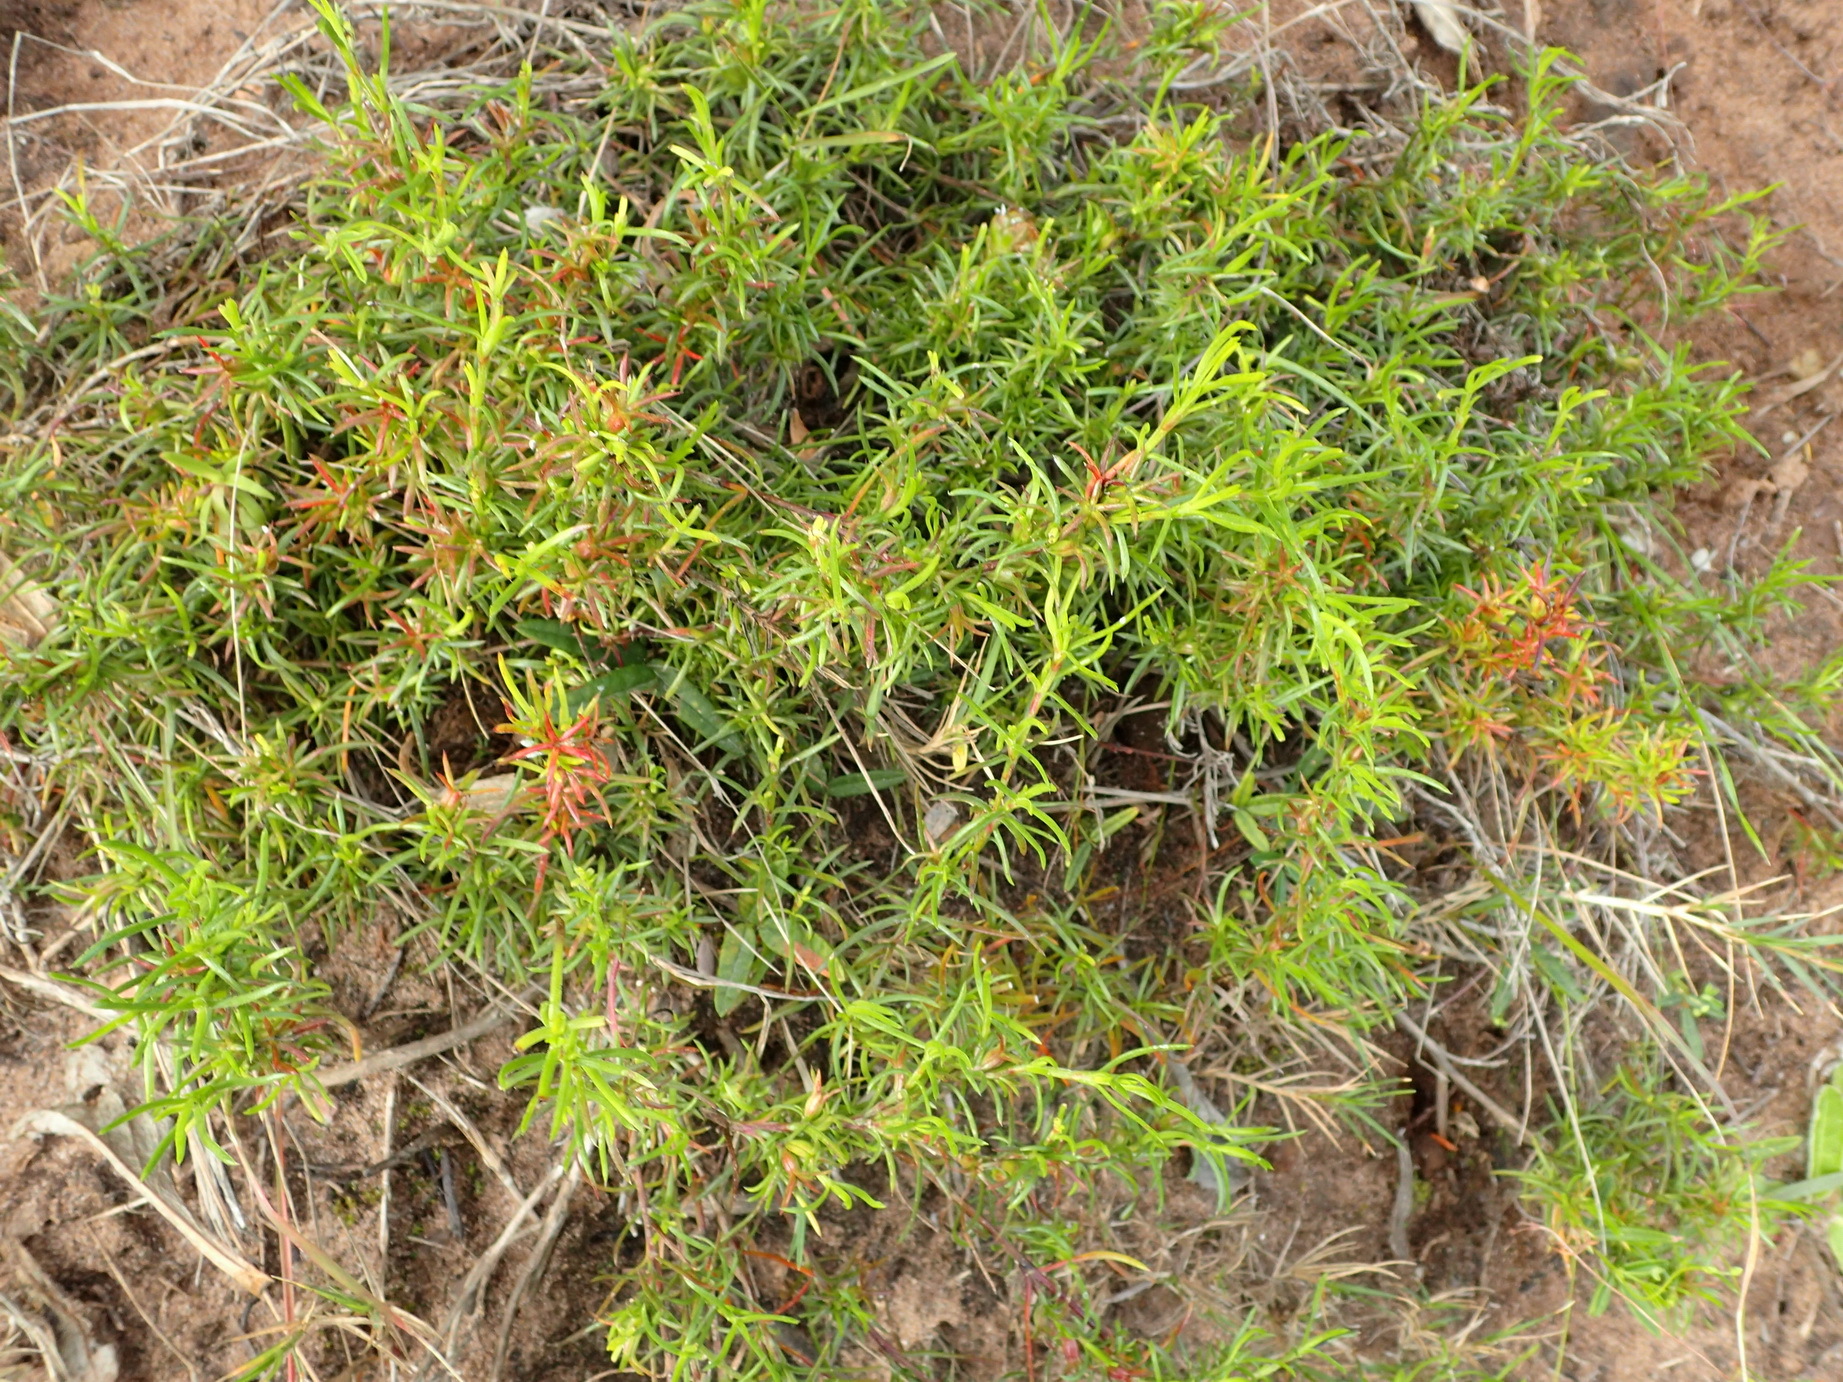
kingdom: Plantae
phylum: Tracheophyta
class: Magnoliopsida
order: Gentianales
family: Rubiaceae
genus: Carpacoce
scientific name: Carpacoce vaginellata
